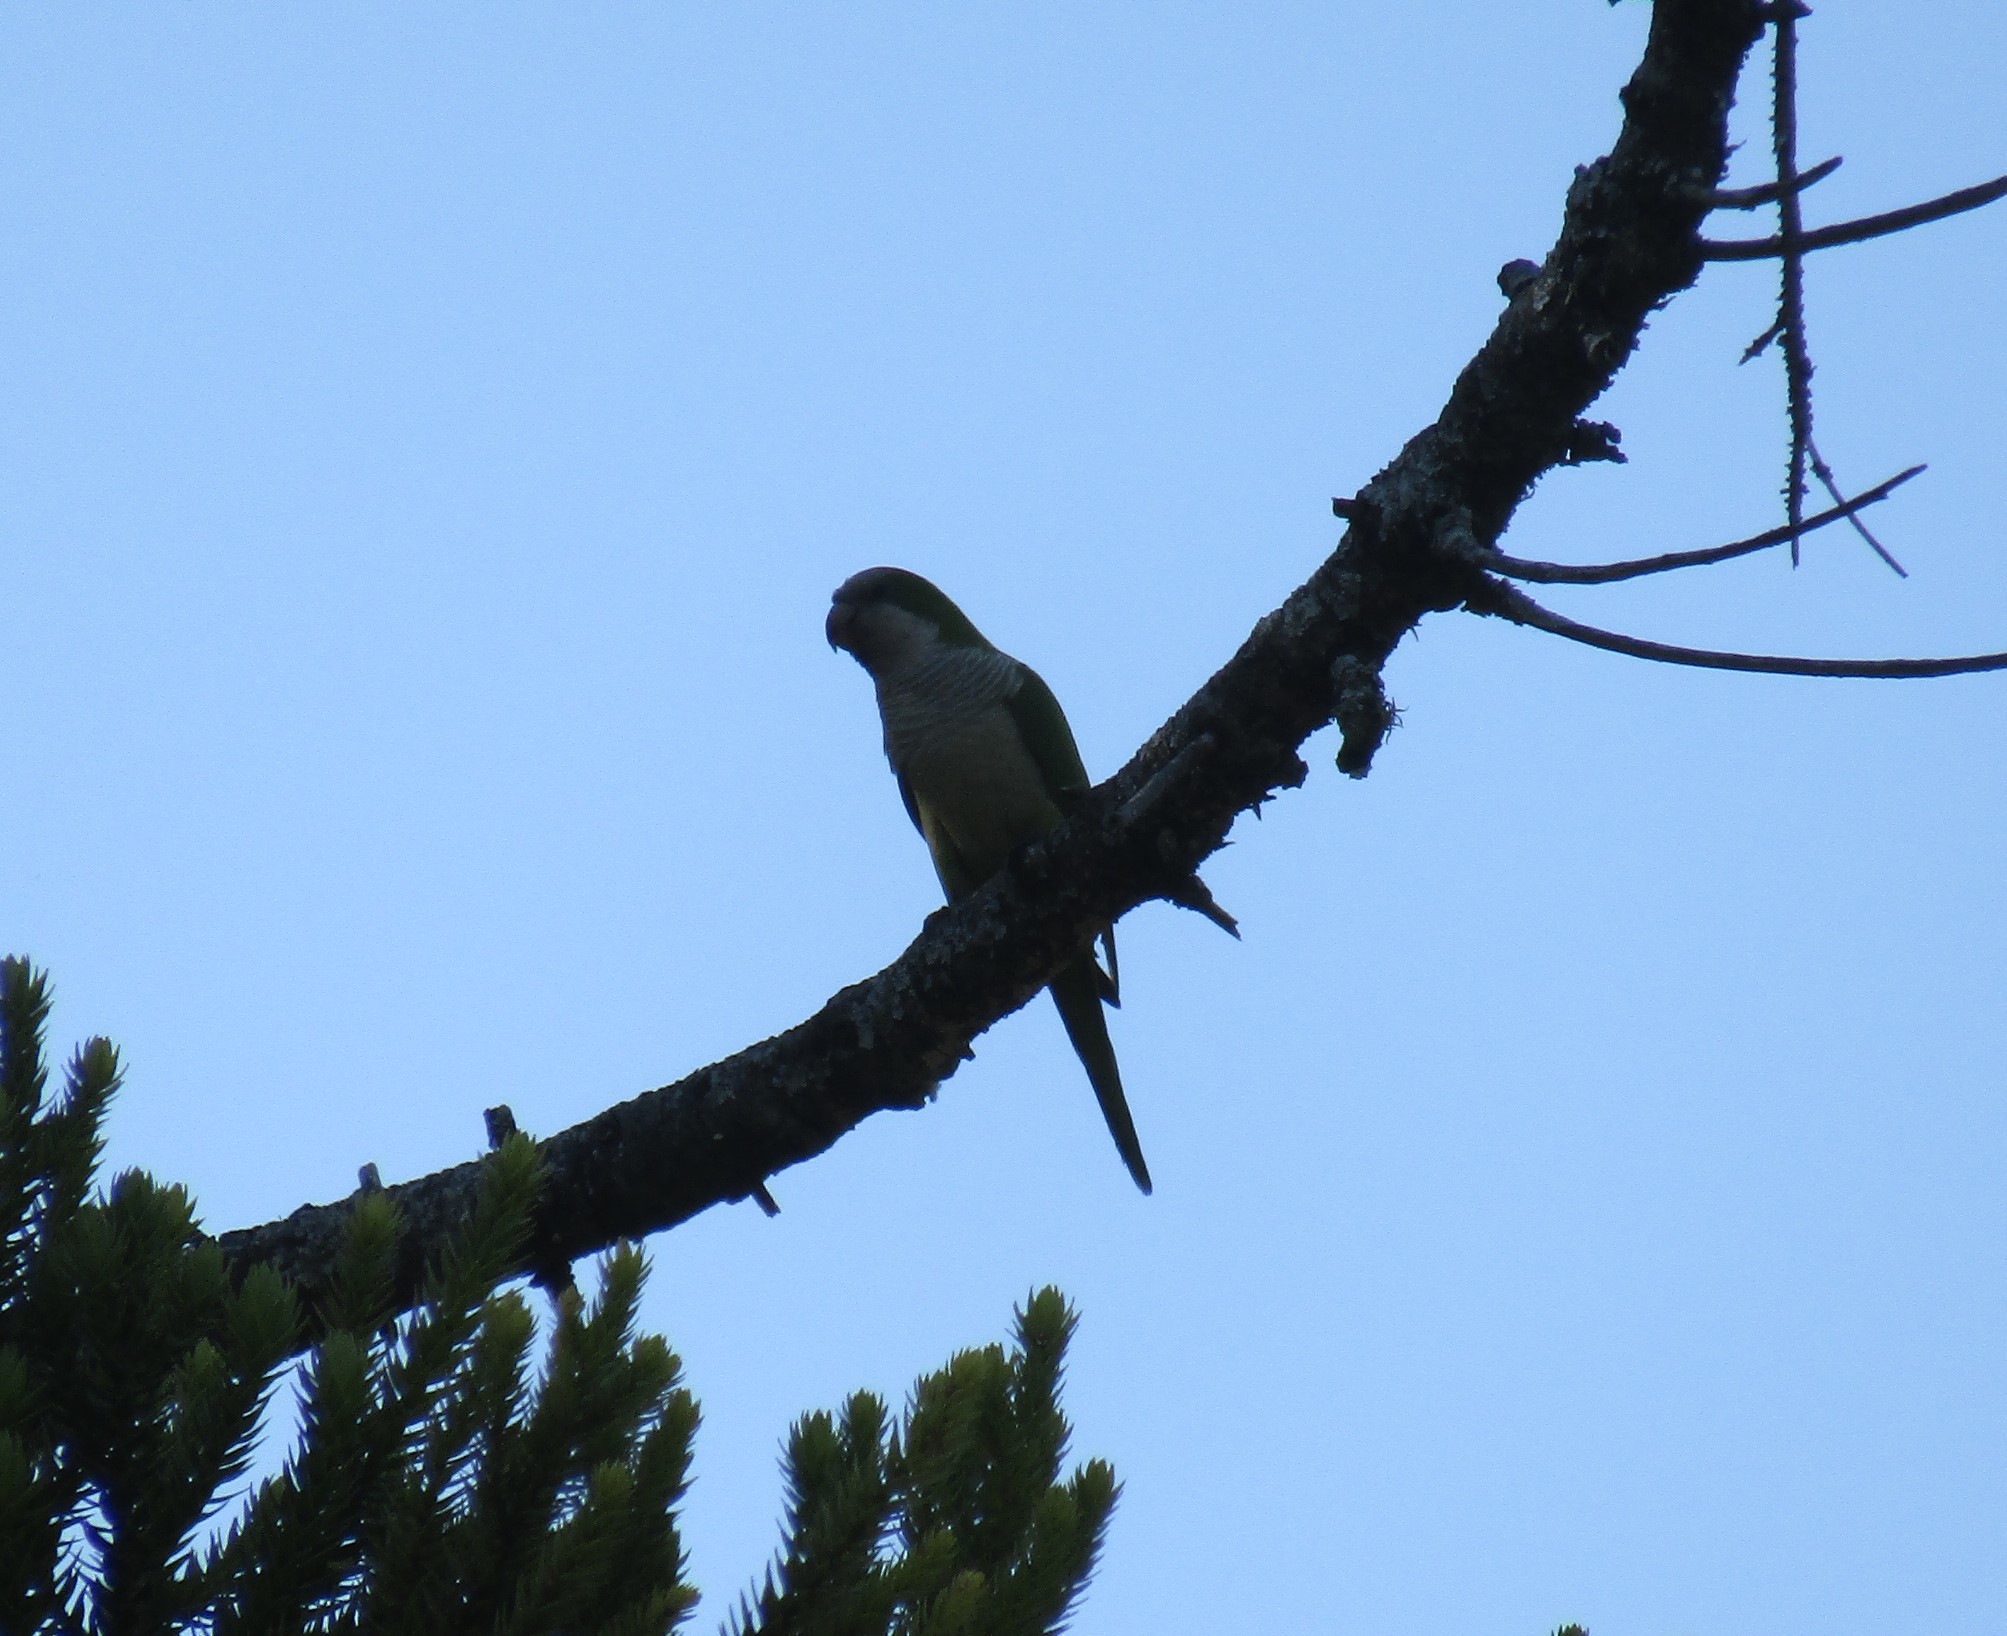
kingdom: Animalia
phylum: Chordata
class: Aves
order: Psittaciformes
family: Psittacidae
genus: Myiopsitta
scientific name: Myiopsitta monachus
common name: Monk parakeet
